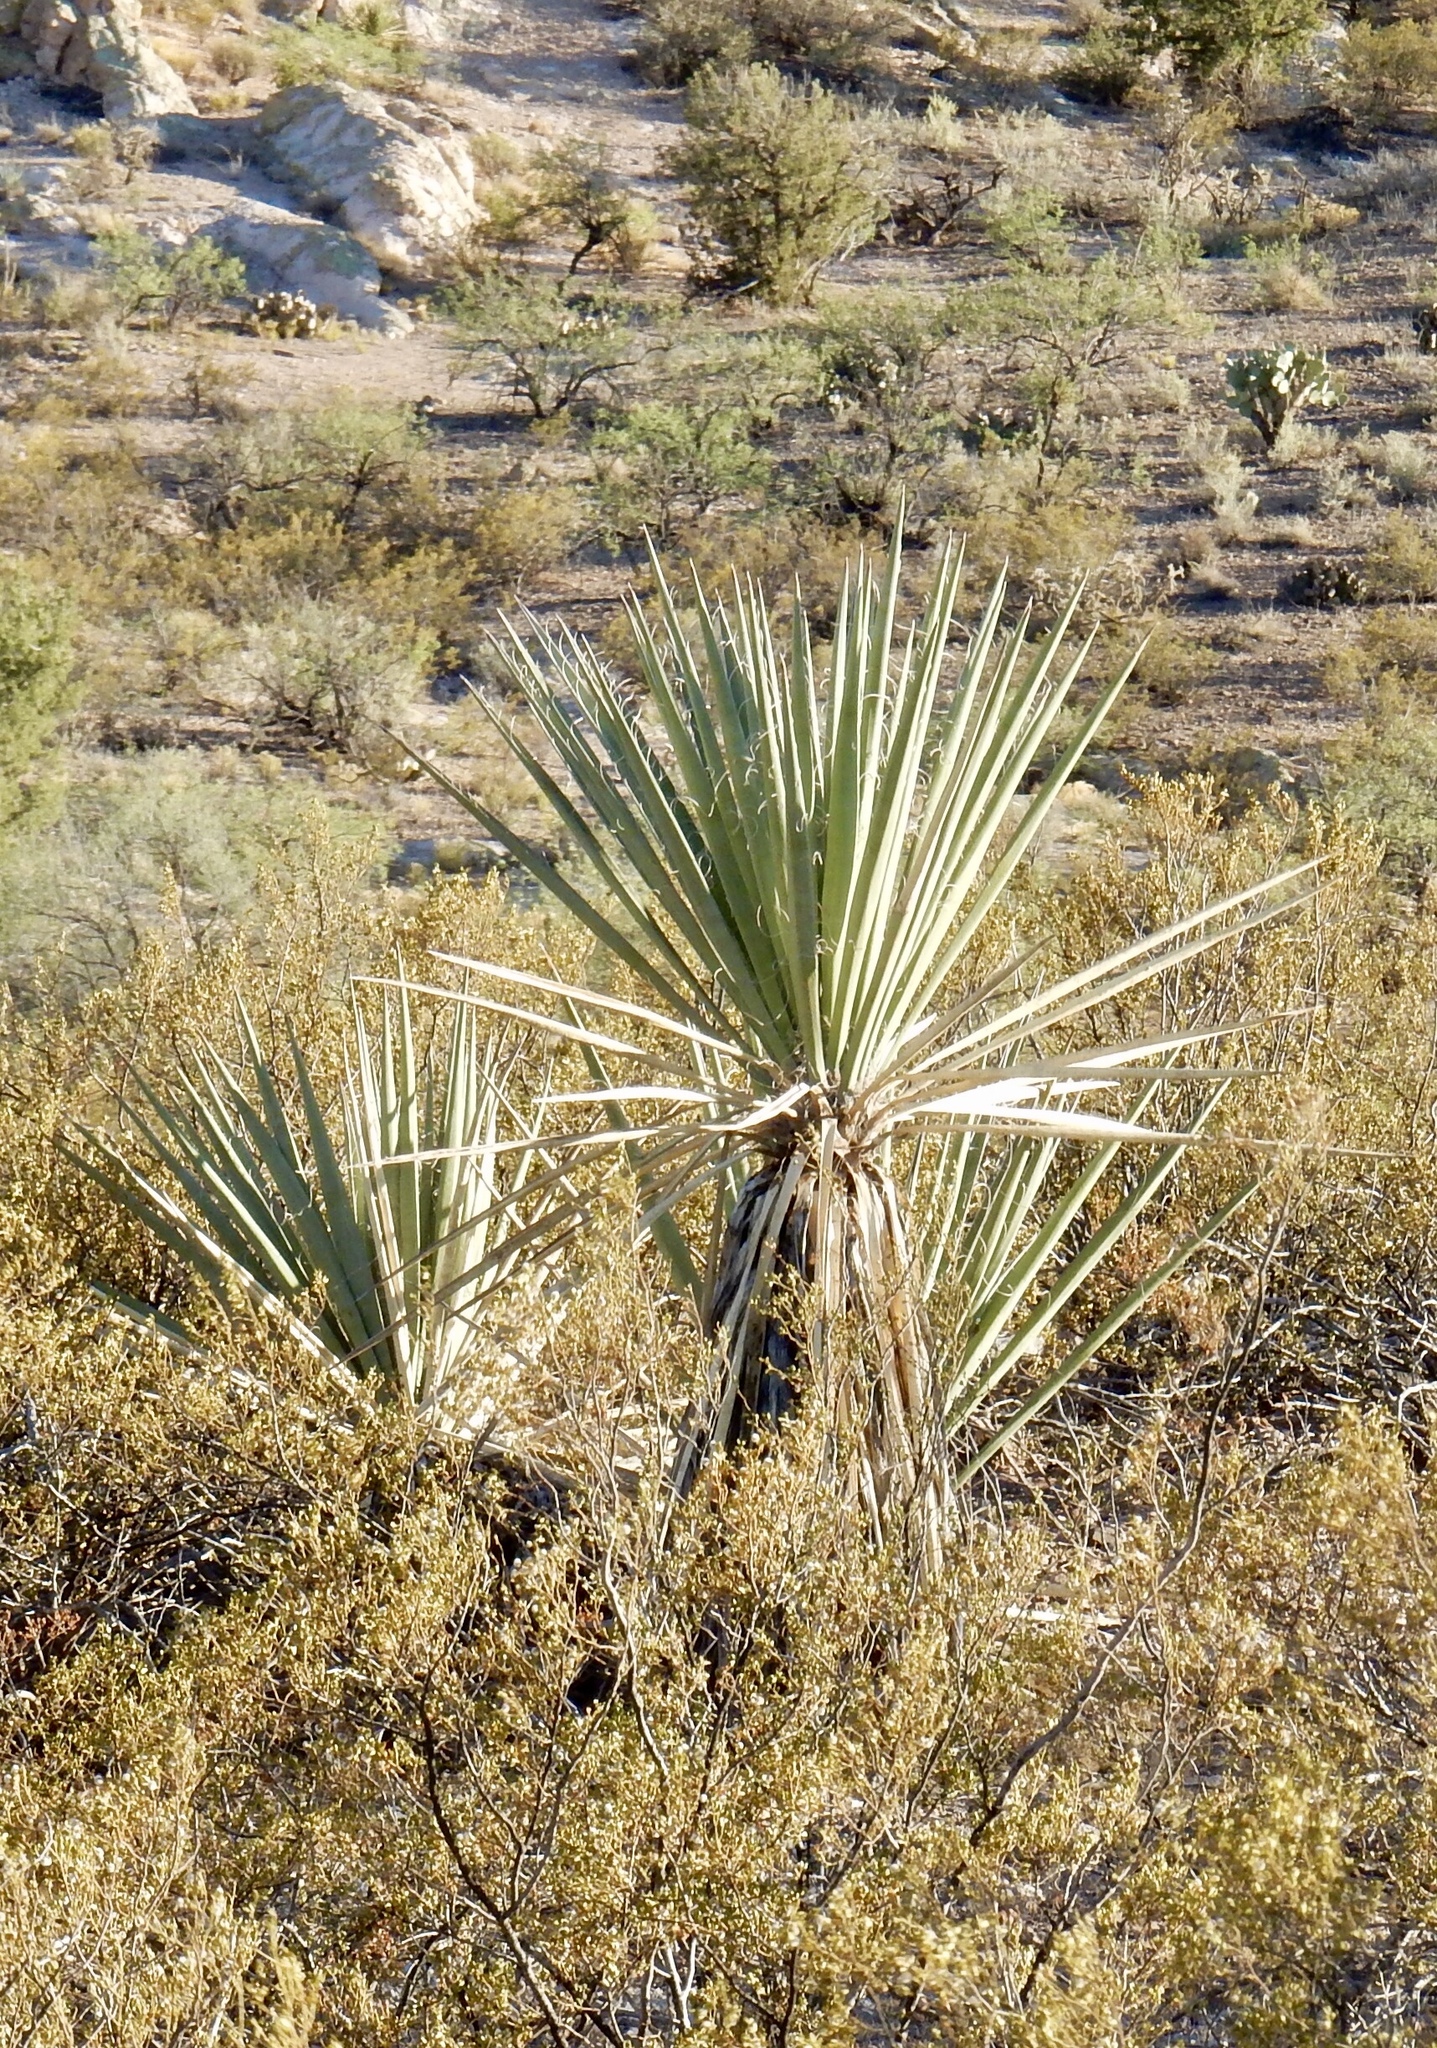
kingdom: Plantae
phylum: Tracheophyta
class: Liliopsida
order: Asparagales
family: Asparagaceae
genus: Yucca
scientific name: Yucca baccata
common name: Banana yucca
